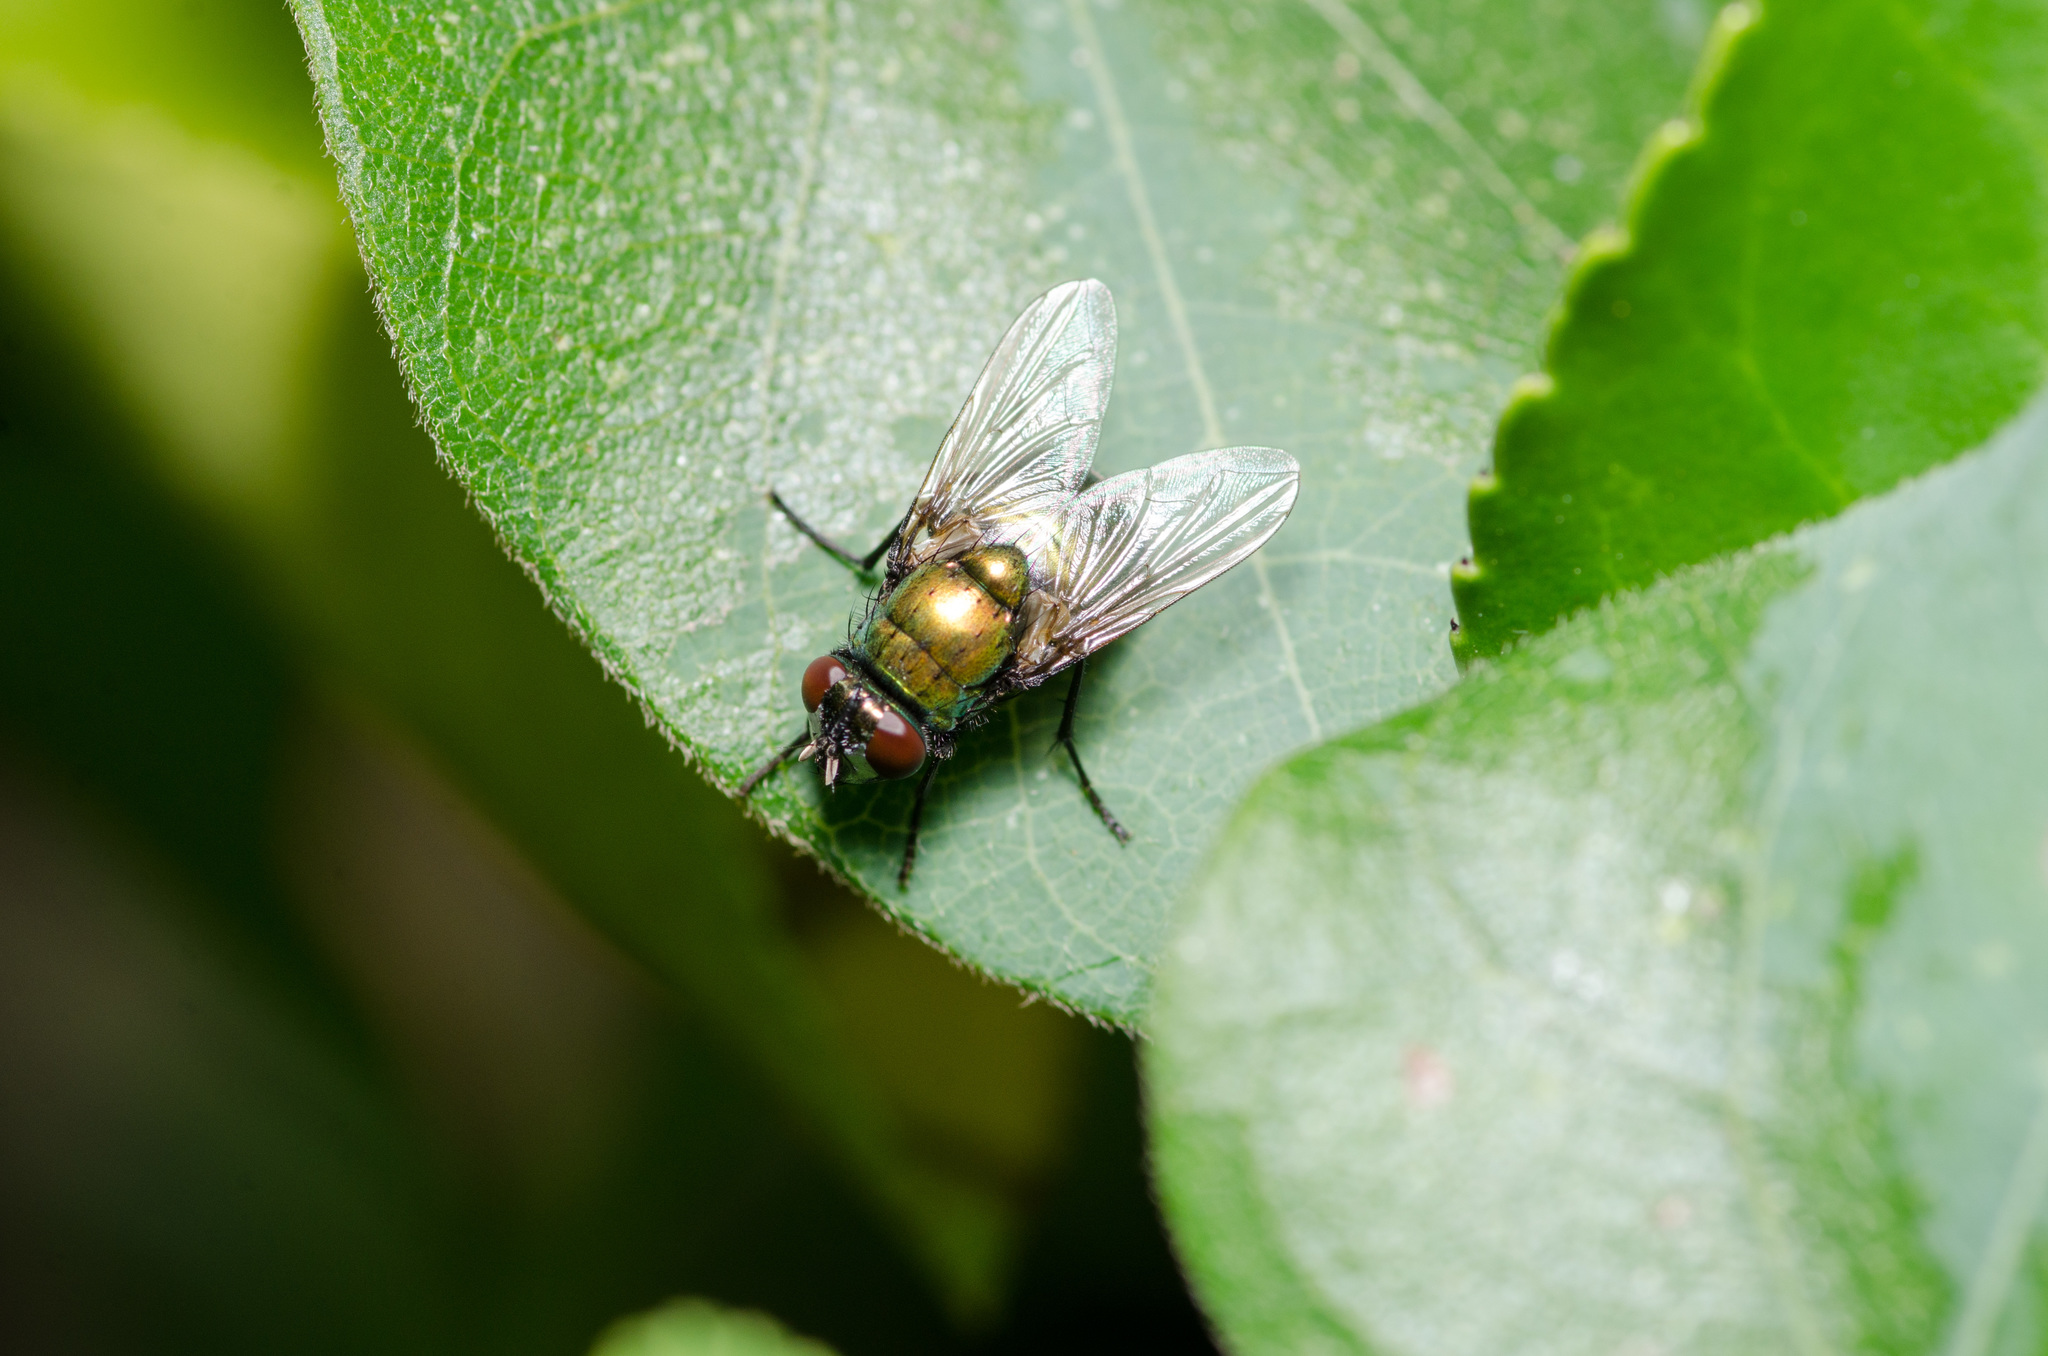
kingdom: Animalia
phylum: Arthropoda
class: Insecta
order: Diptera
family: Muscidae
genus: Neomyia
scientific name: Neomyia cornicina
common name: House fly
